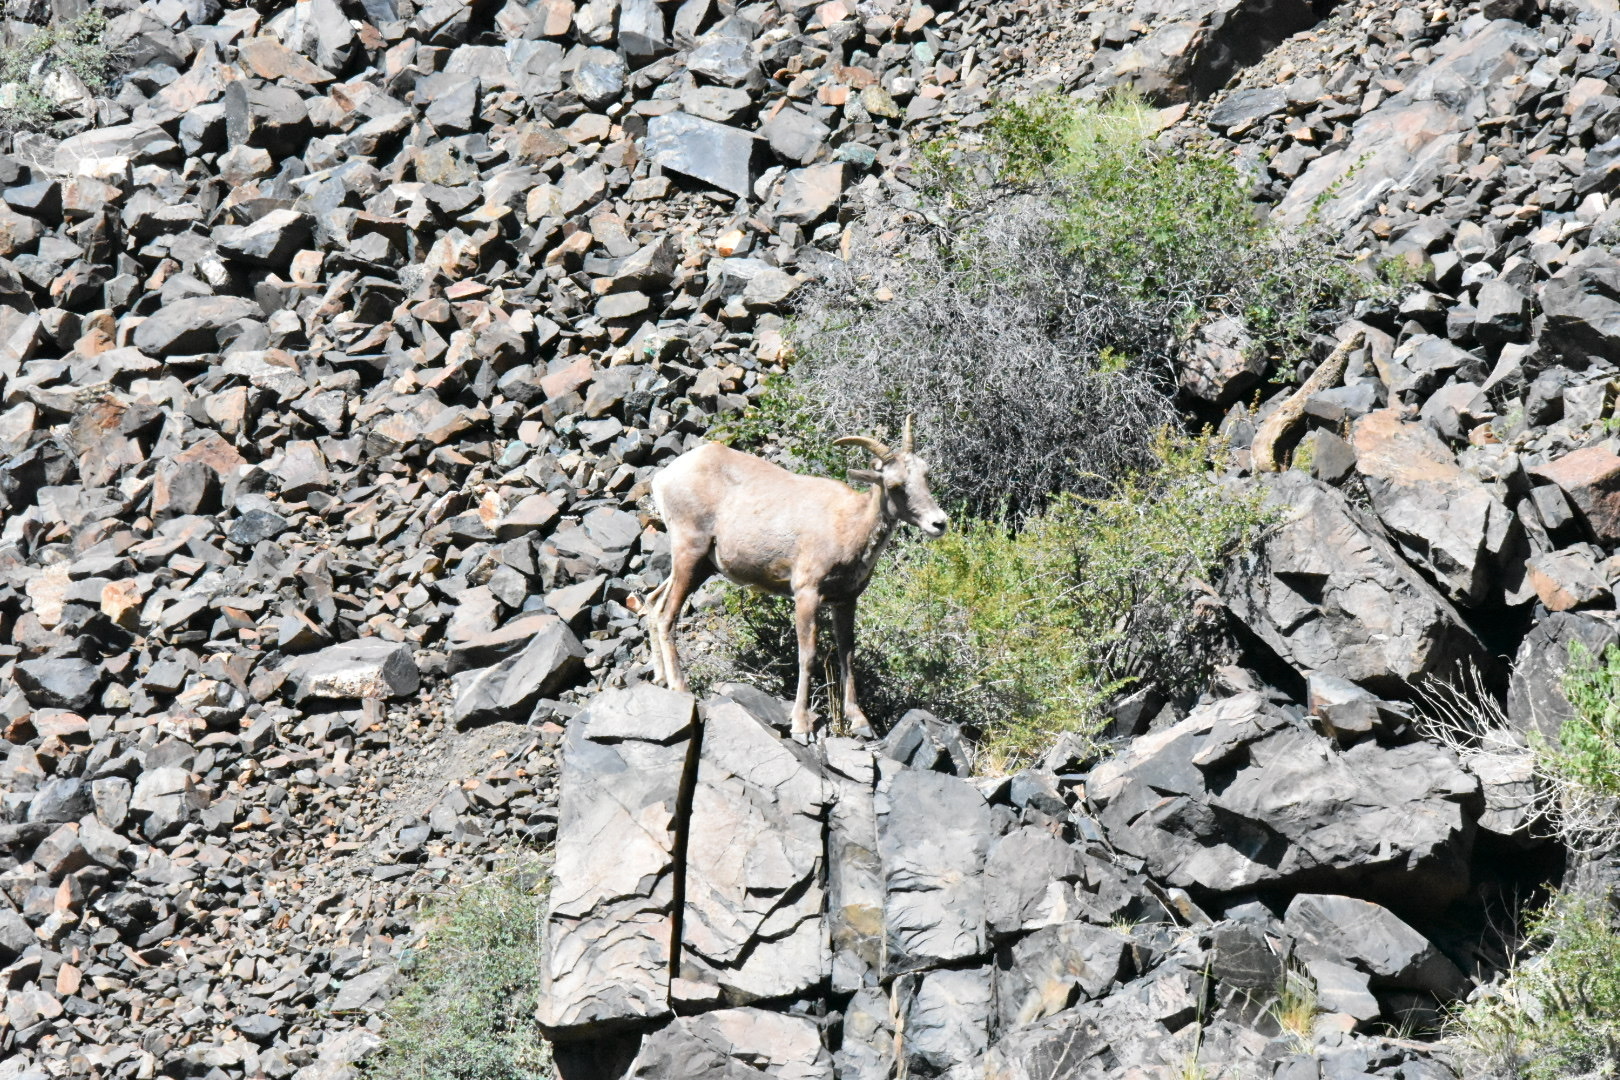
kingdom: Animalia
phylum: Chordata
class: Mammalia
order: Artiodactyla
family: Bovidae
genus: Ovis
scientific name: Ovis canadensis
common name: Bighorn sheep
